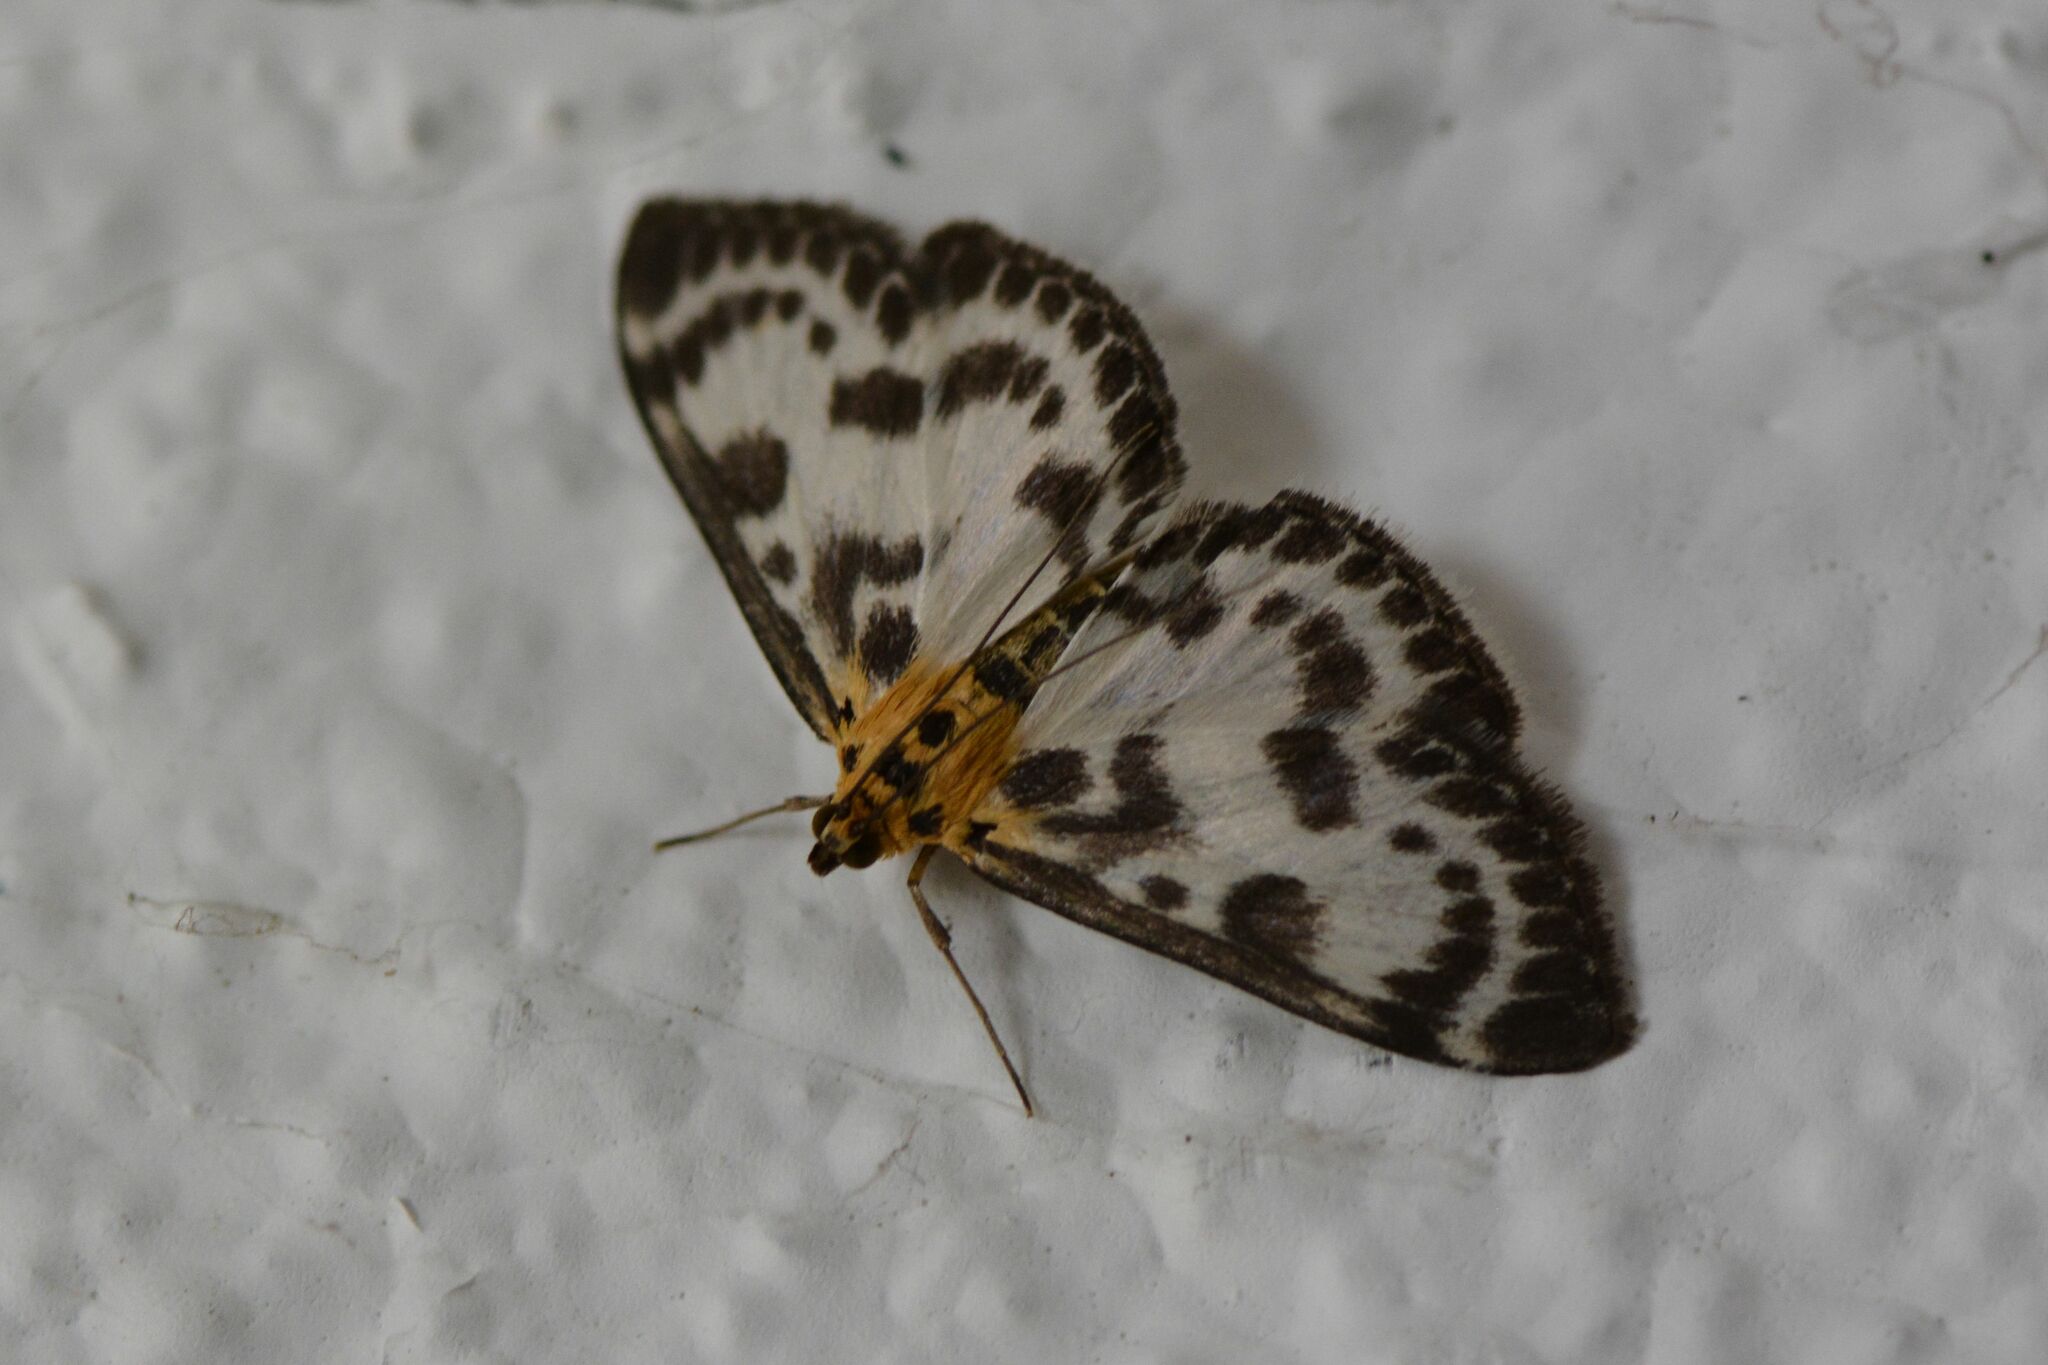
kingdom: Animalia
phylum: Arthropoda
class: Insecta
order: Lepidoptera
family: Crambidae
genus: Anania
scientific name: Anania hortulata
